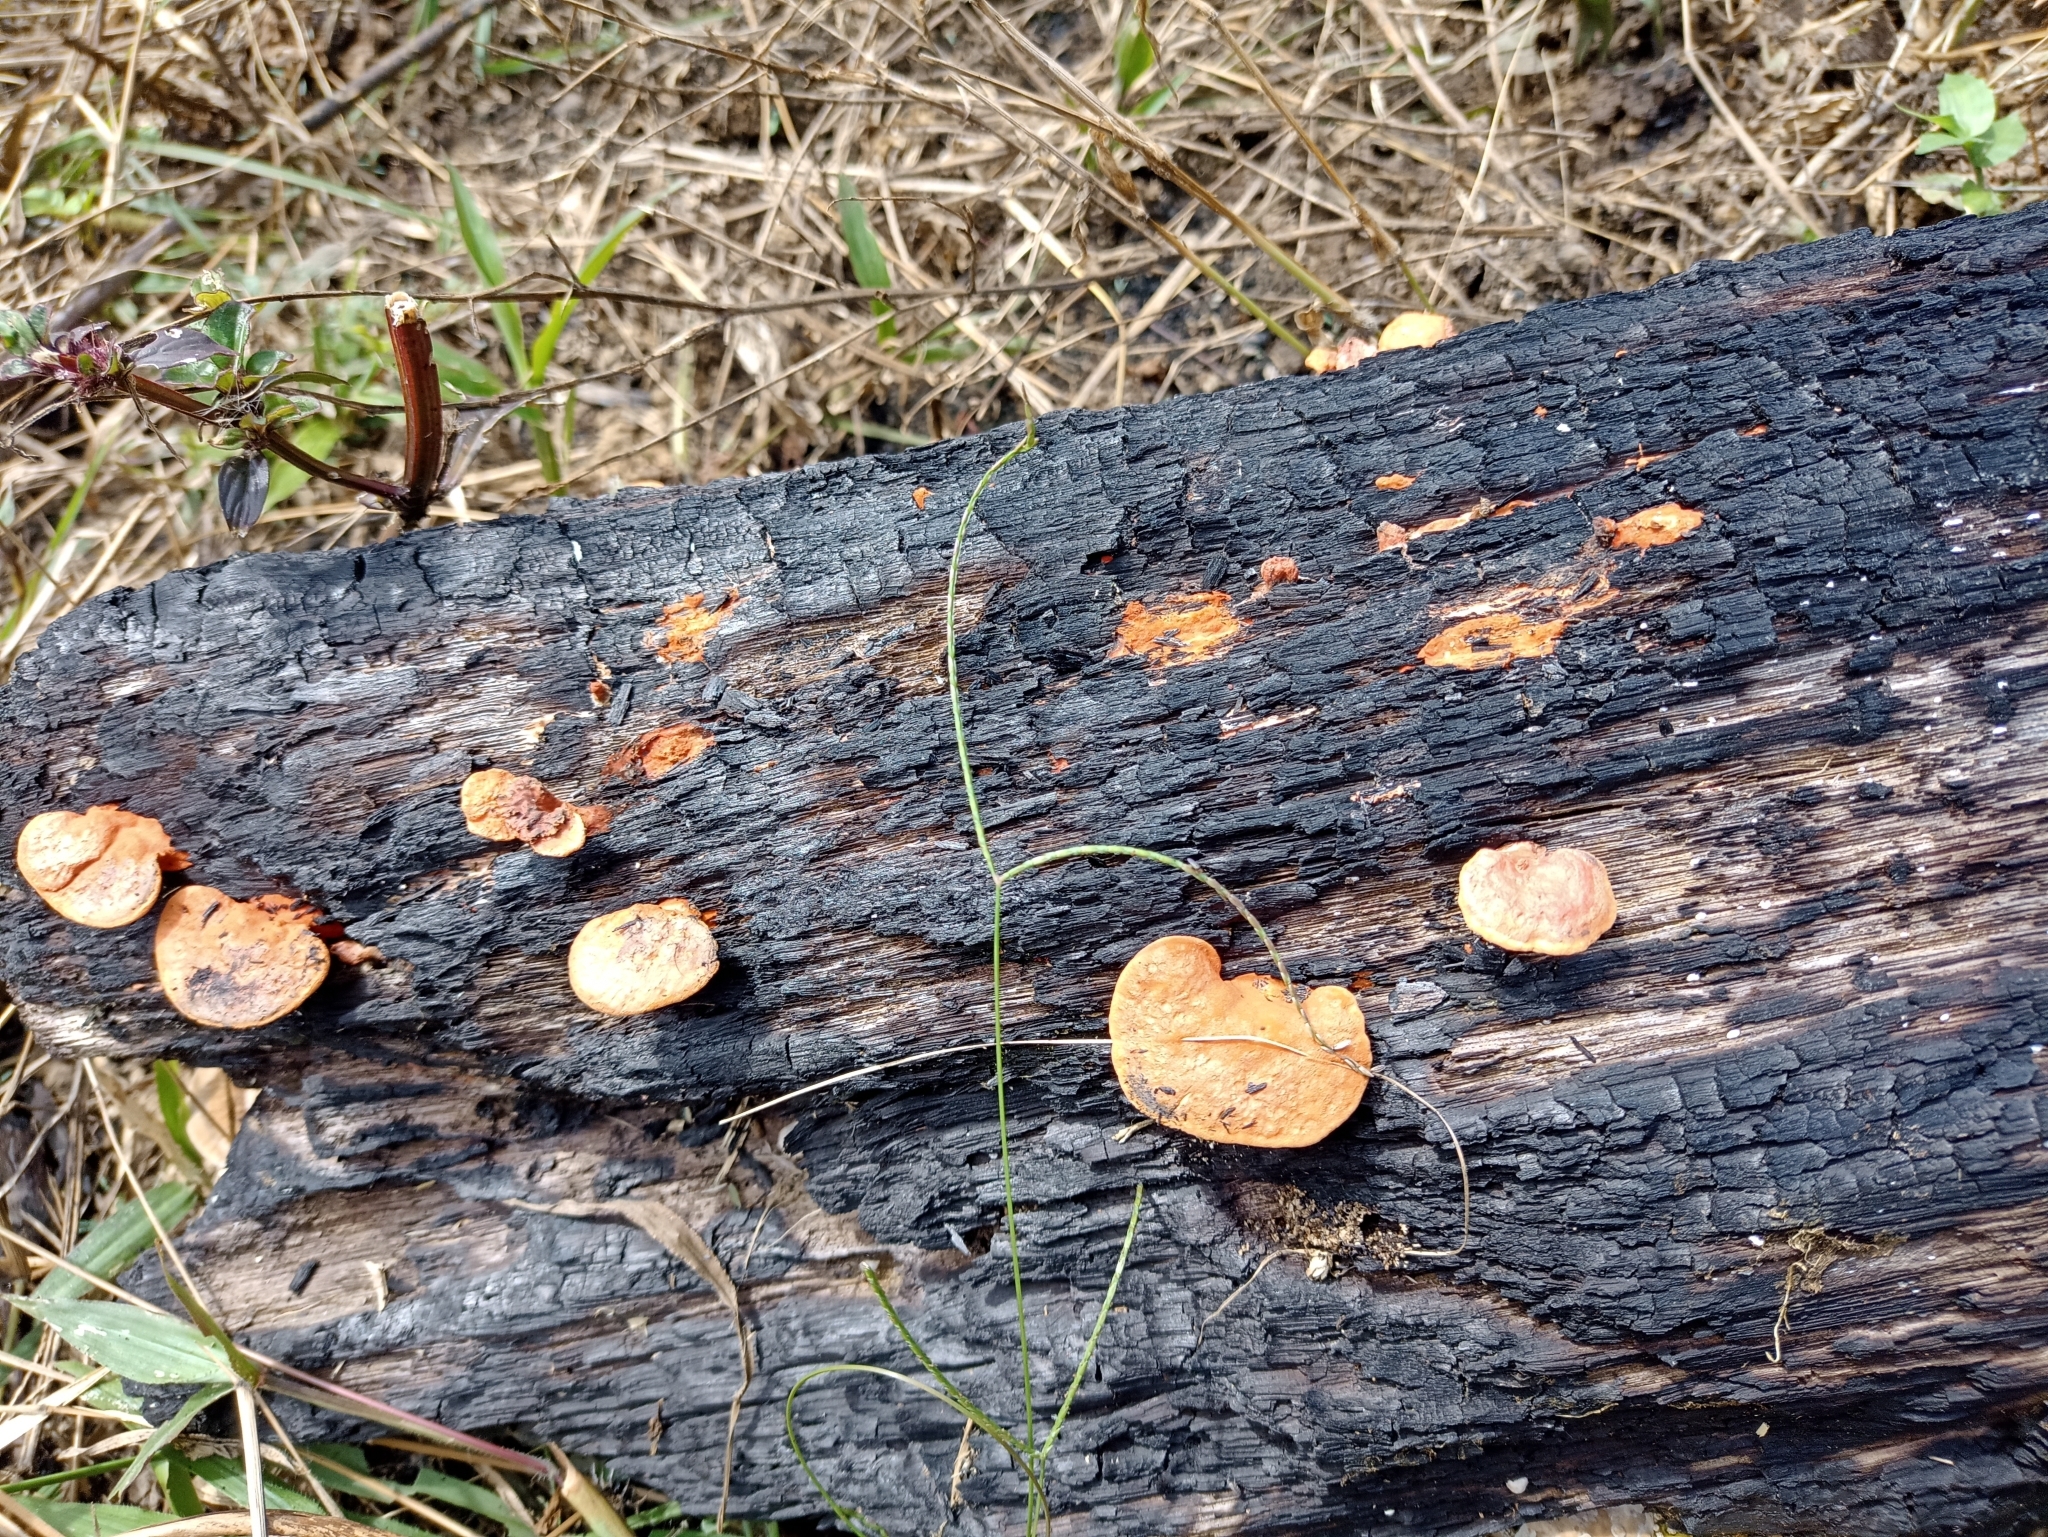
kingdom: Fungi
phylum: Basidiomycota
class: Agaricomycetes
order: Polyporales
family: Polyporaceae
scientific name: Polyporaceae
